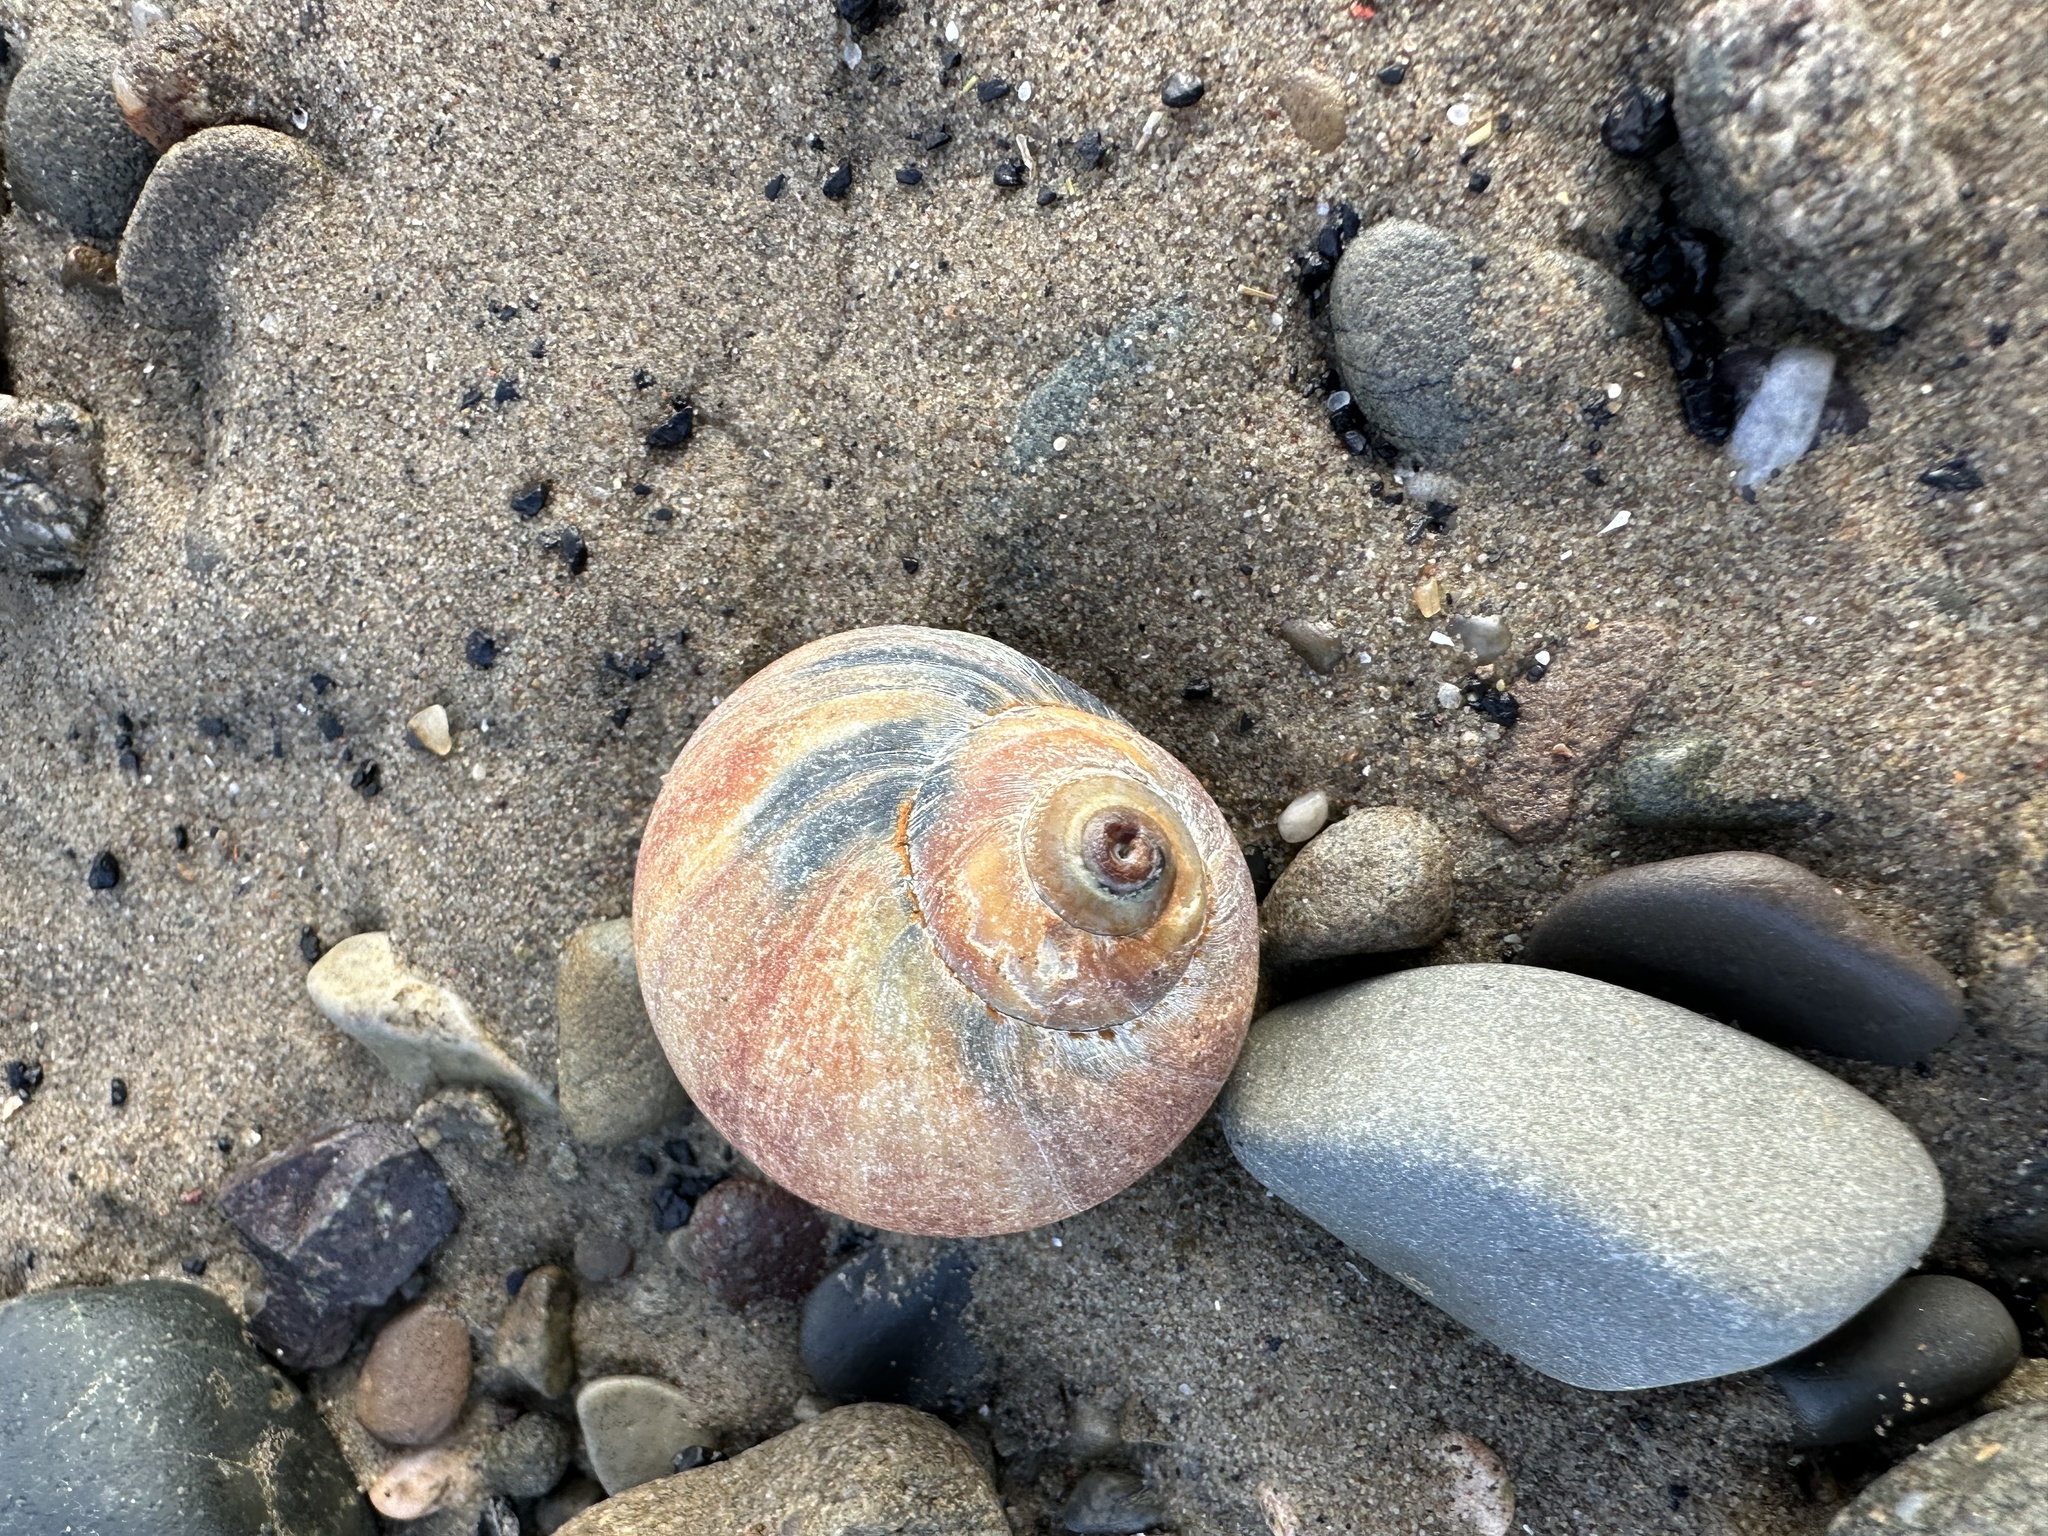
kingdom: Animalia
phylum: Mollusca
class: Gastropoda
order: Littorinimorpha
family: Naticidae
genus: Euspira
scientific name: Euspira heros
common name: Common northern moonsnail
